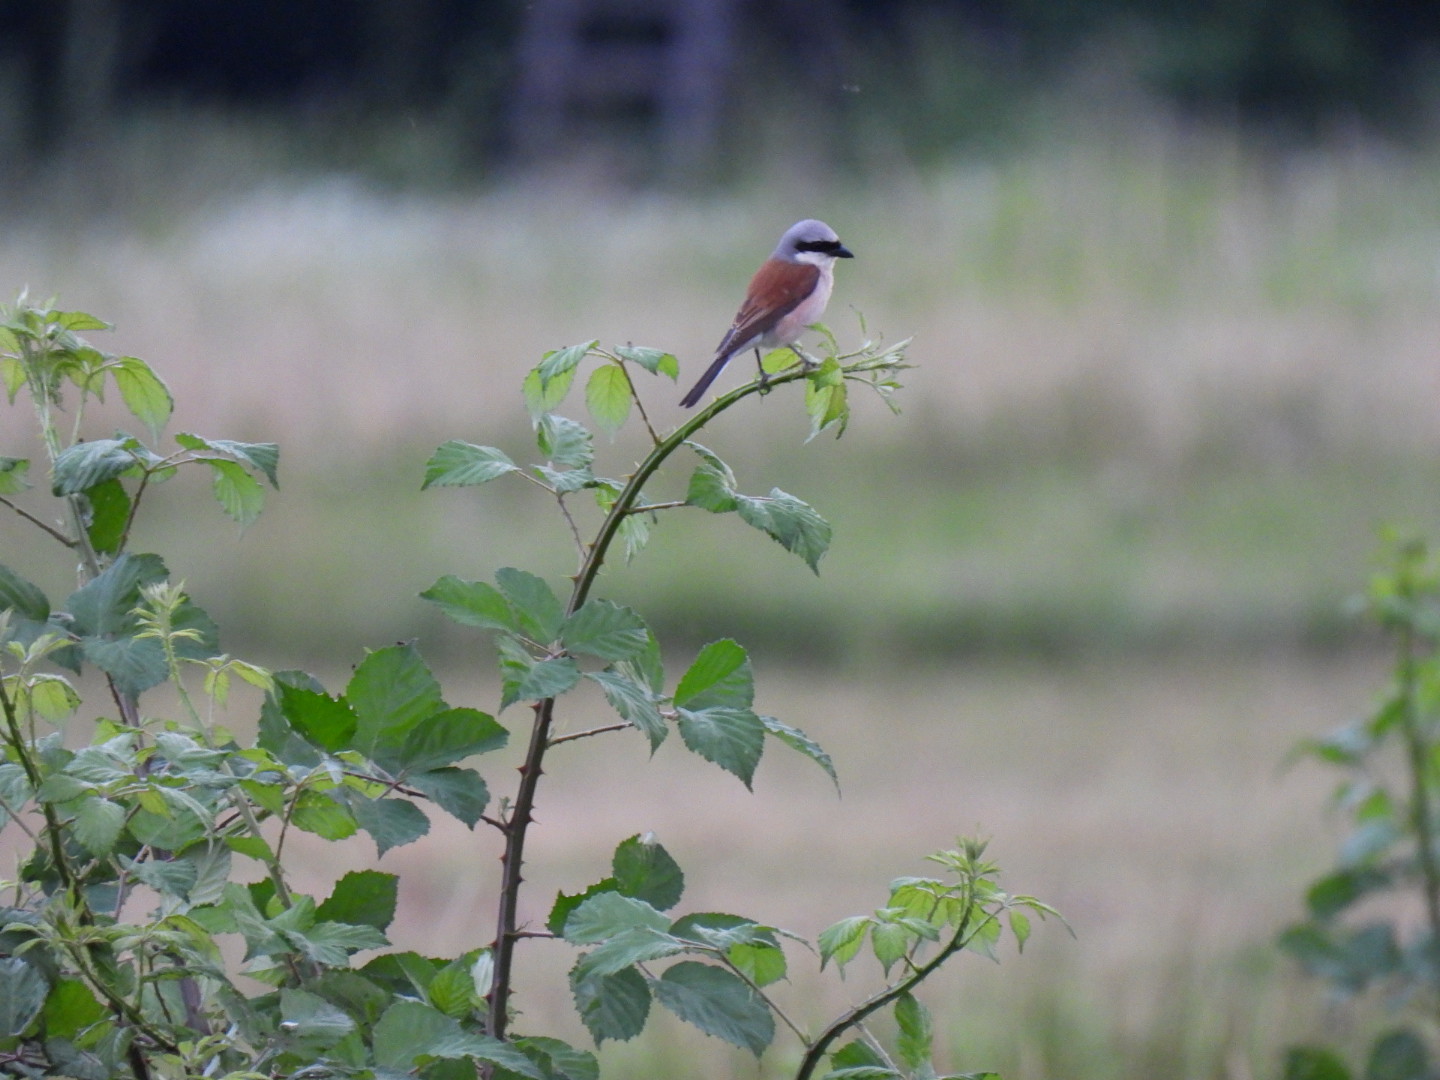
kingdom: Animalia
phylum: Chordata
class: Aves
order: Passeriformes
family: Laniidae
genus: Lanius
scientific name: Lanius collurio
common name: Red-backed shrike
